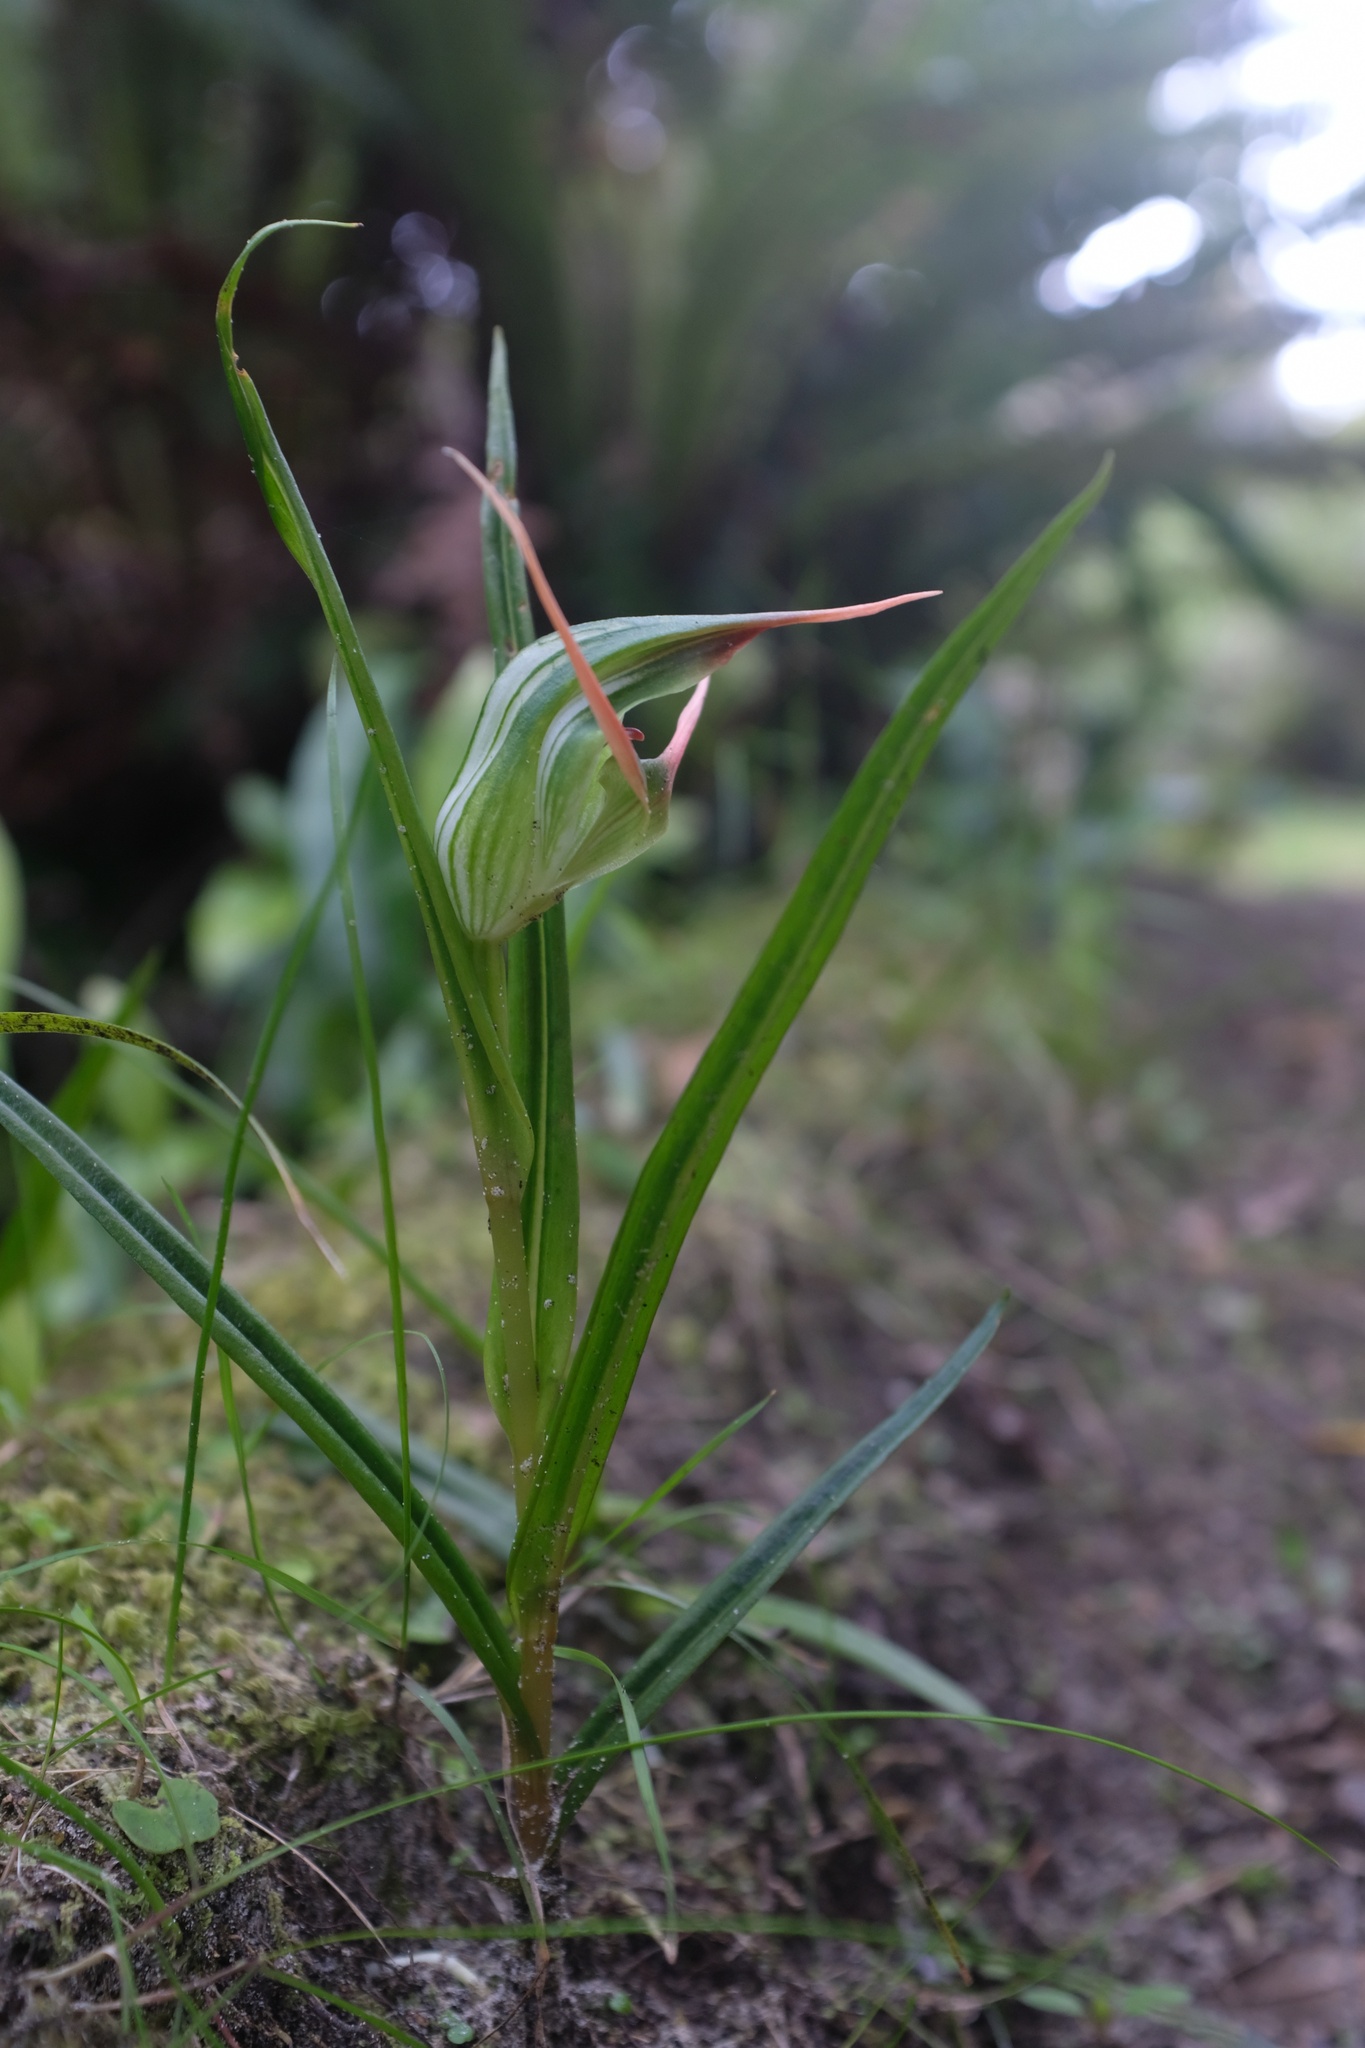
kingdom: Plantae
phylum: Tracheophyta
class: Liliopsida
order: Asparagales
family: Orchidaceae
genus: Pterostylis
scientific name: Pterostylis banksii
